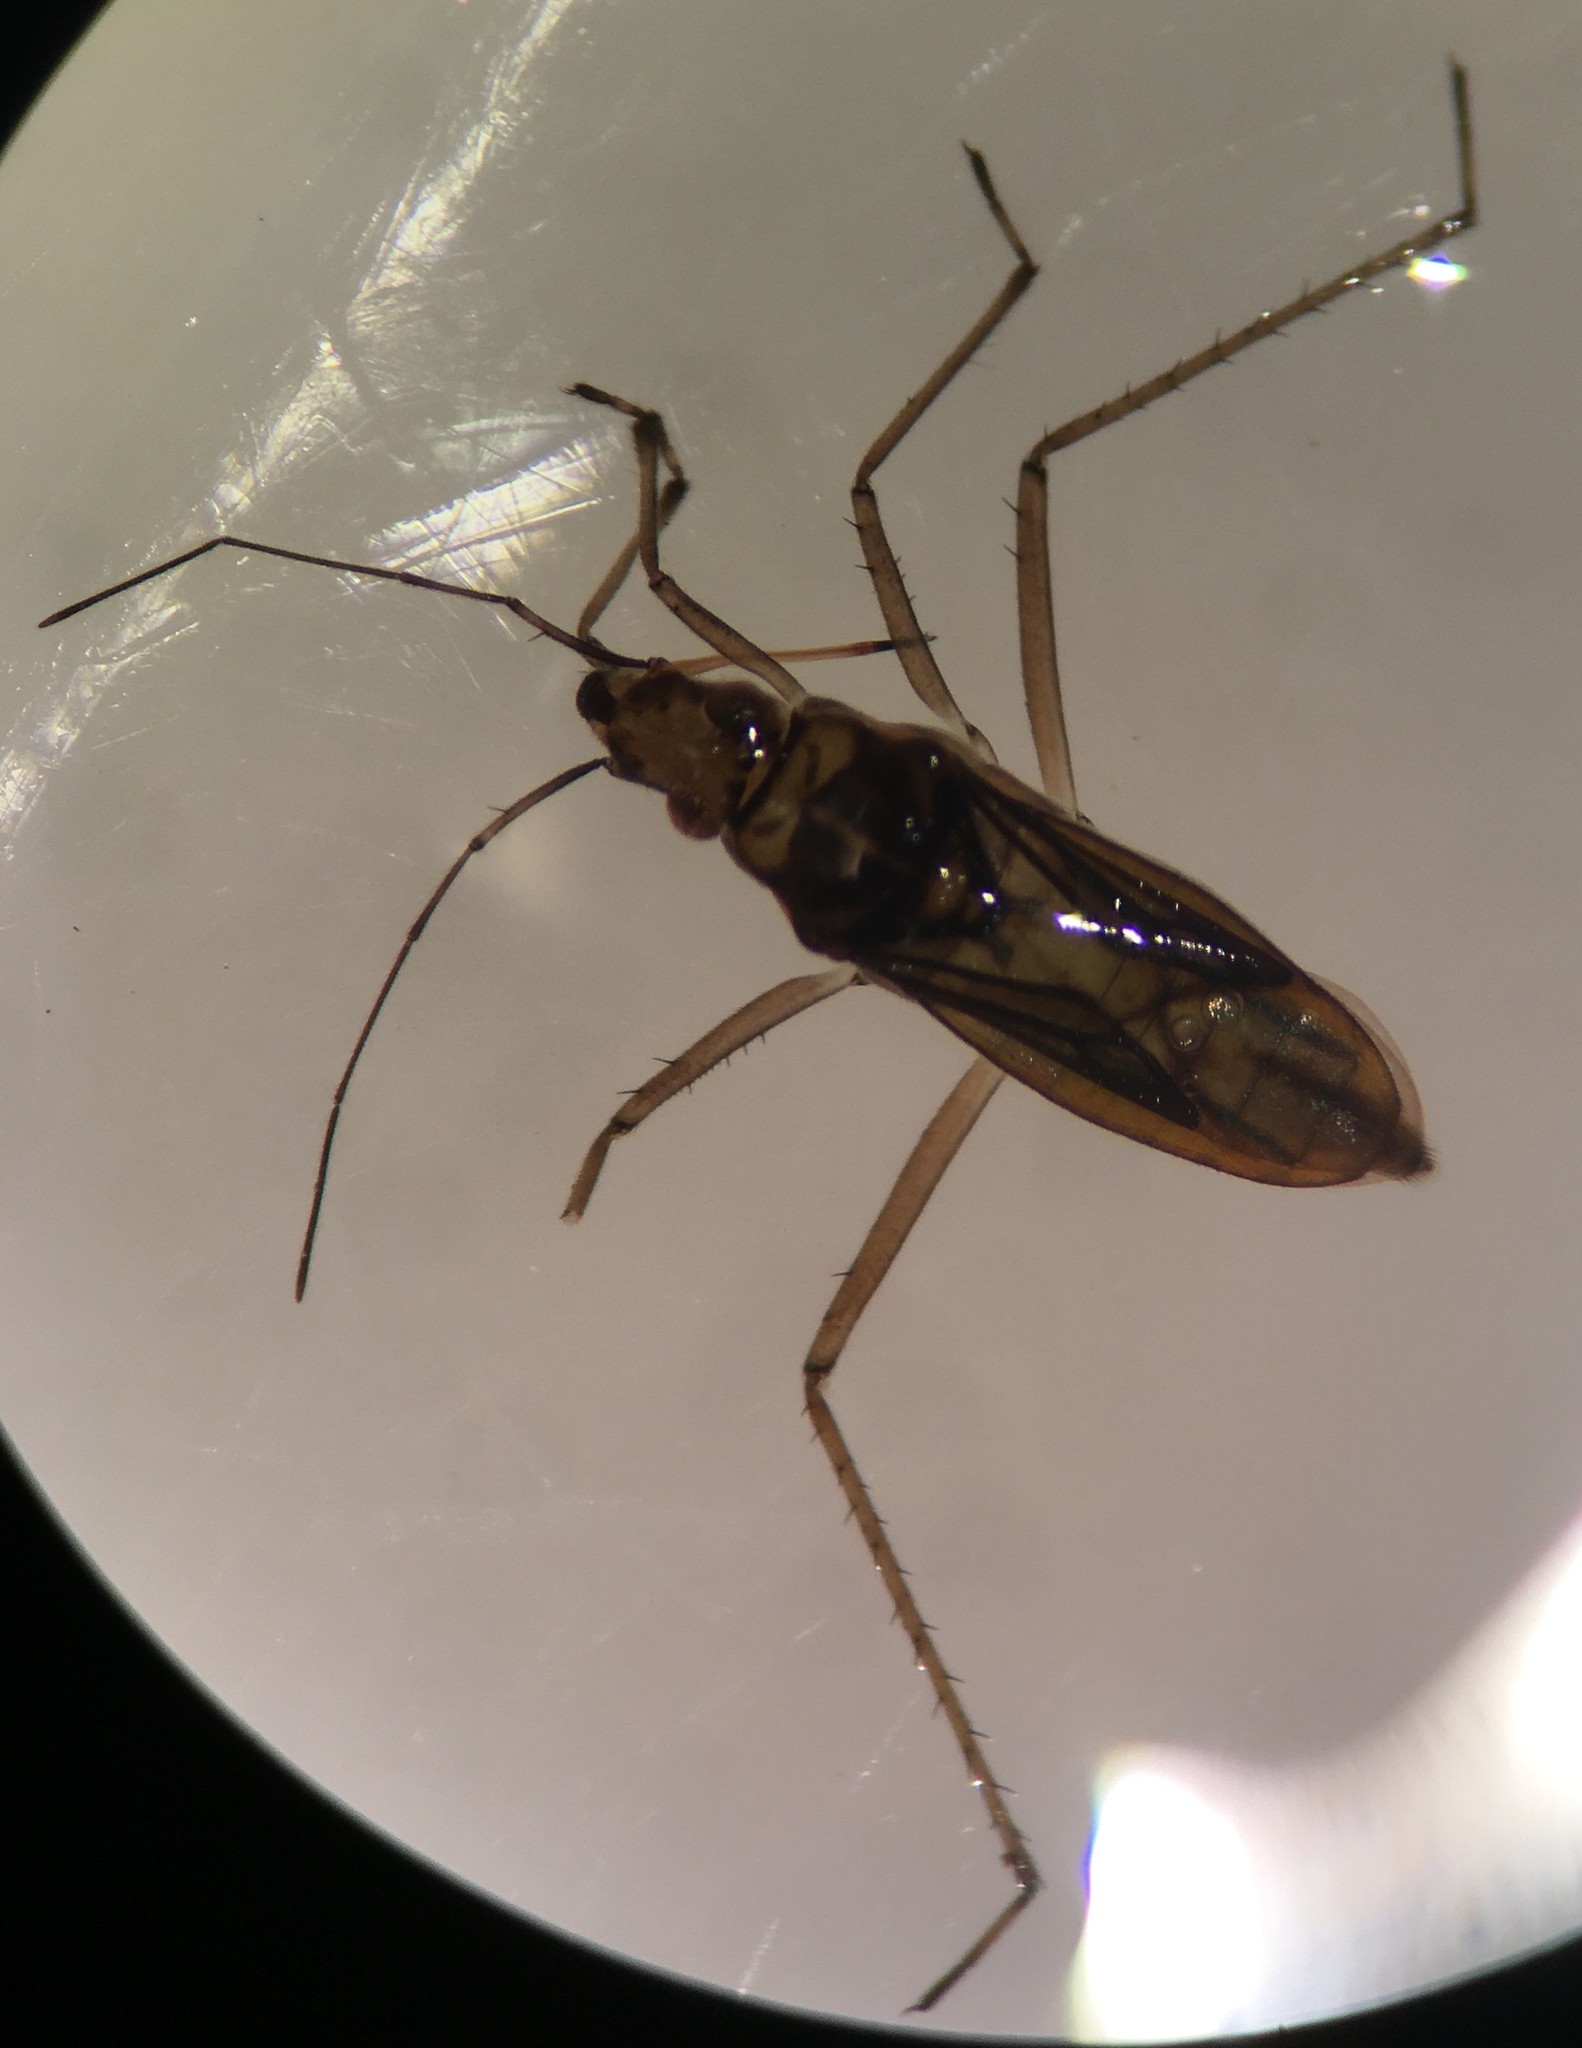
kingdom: Animalia
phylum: Arthropoda
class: Insecta
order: Hemiptera
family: Mesoveliidae
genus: Mesovelia
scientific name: Mesovelia mulsanti
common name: Water treaders
